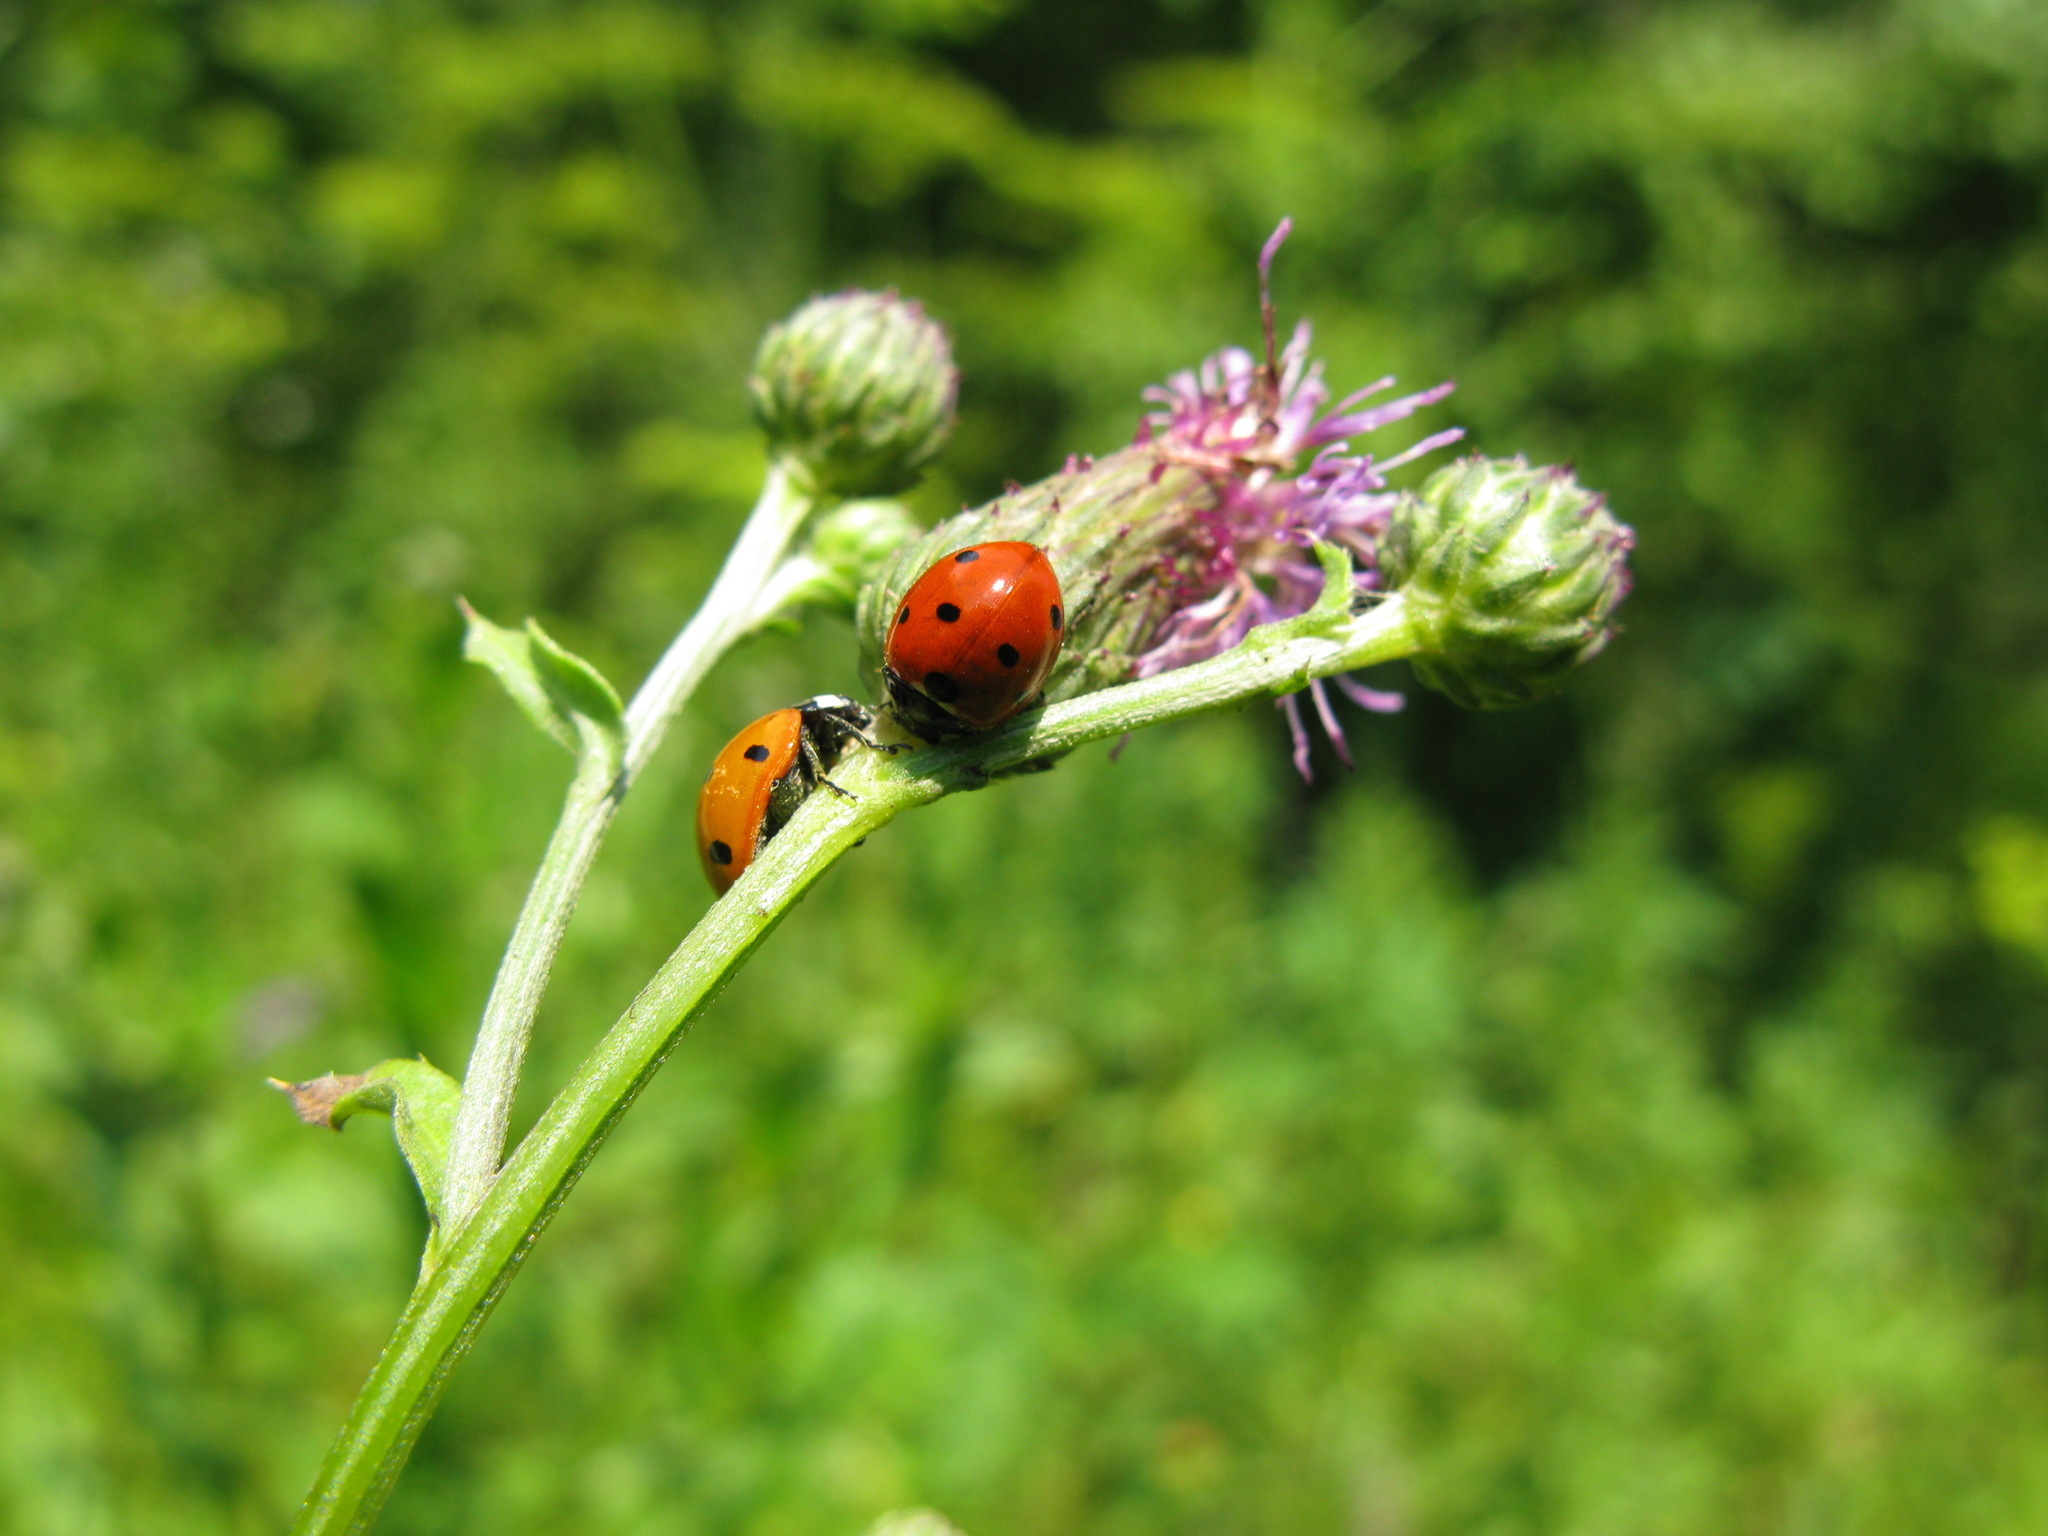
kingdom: Animalia
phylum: Arthropoda
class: Insecta
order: Coleoptera
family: Coccinellidae
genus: Coccinella
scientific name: Coccinella septempunctata
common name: Sevenspotted lady beetle
